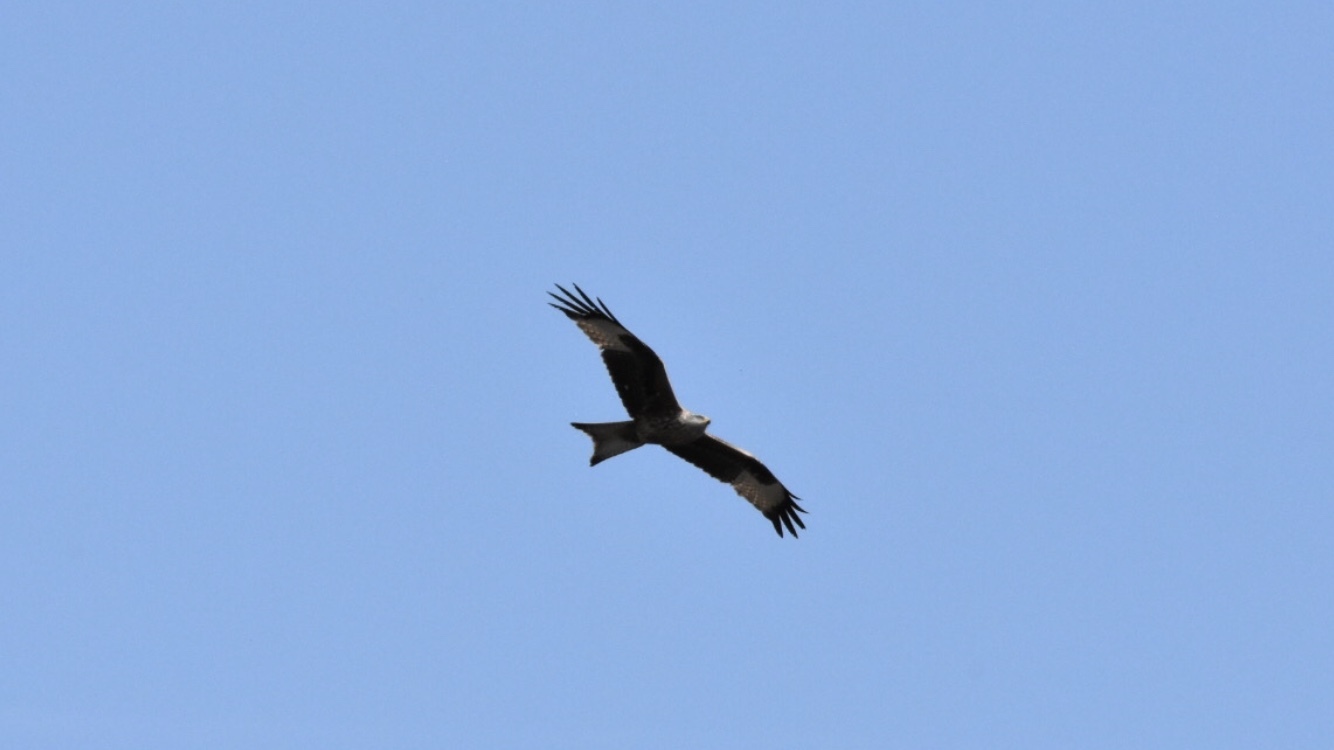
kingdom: Animalia
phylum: Chordata
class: Aves
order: Accipitriformes
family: Accipitridae
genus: Milvus
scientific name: Milvus milvus
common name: Red kite
